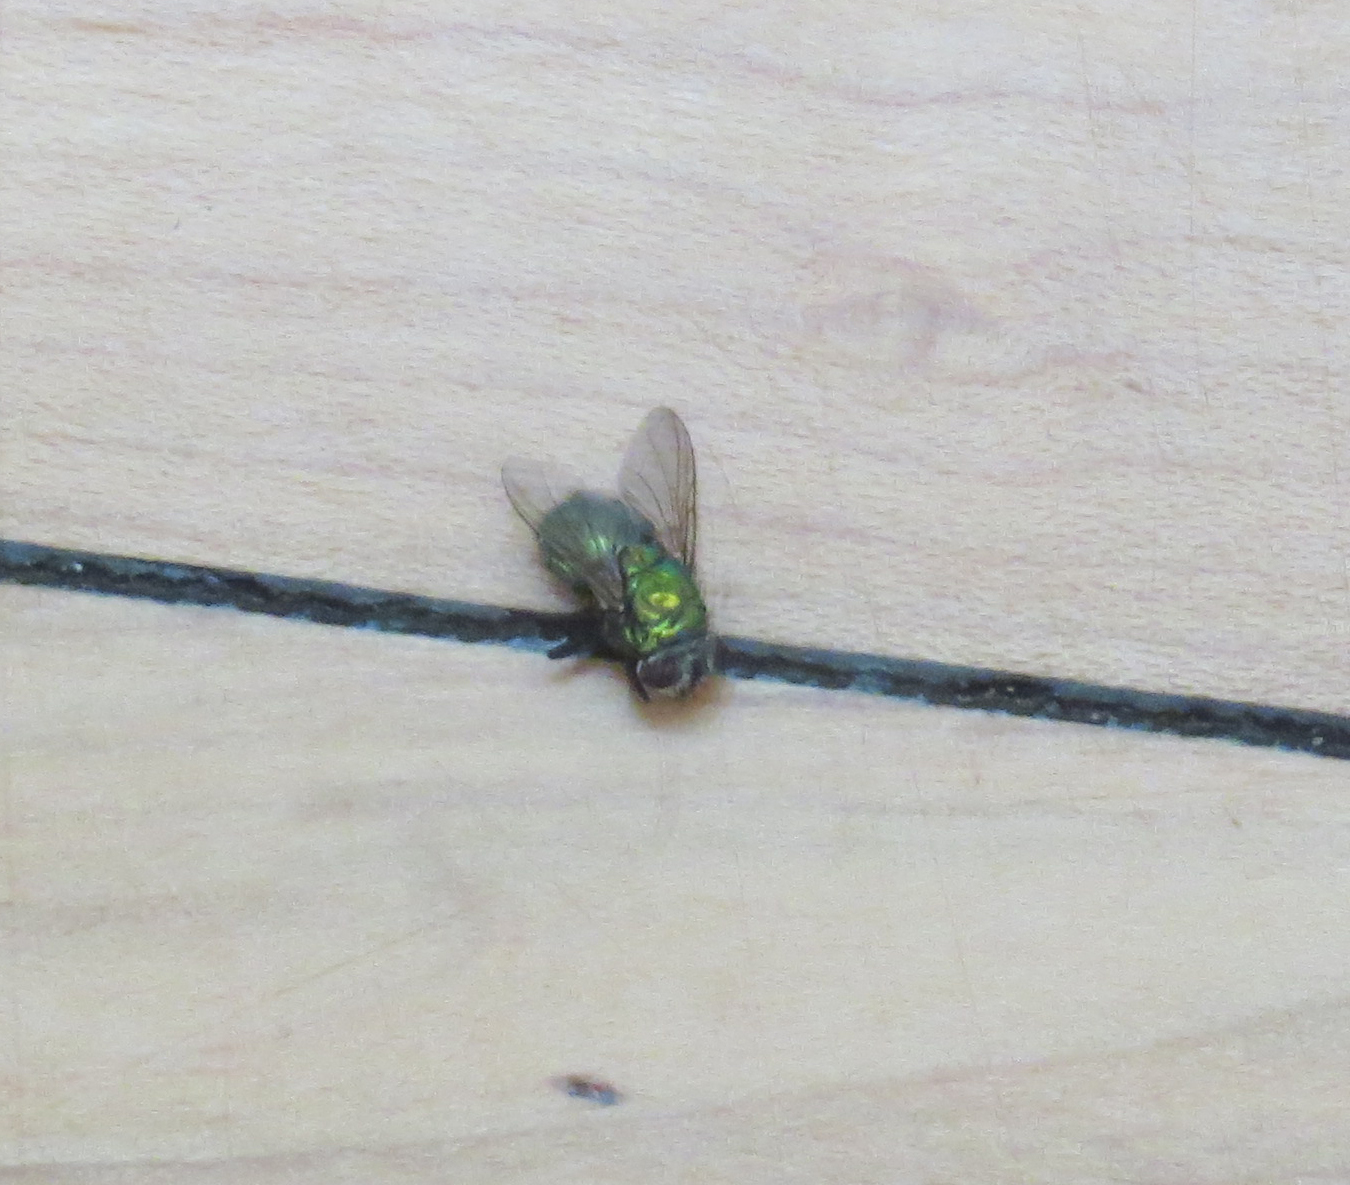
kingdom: Animalia
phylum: Arthropoda
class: Insecta
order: Diptera
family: Calliphoridae
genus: Lucilia
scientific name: Lucilia sericata
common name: Blow fly
